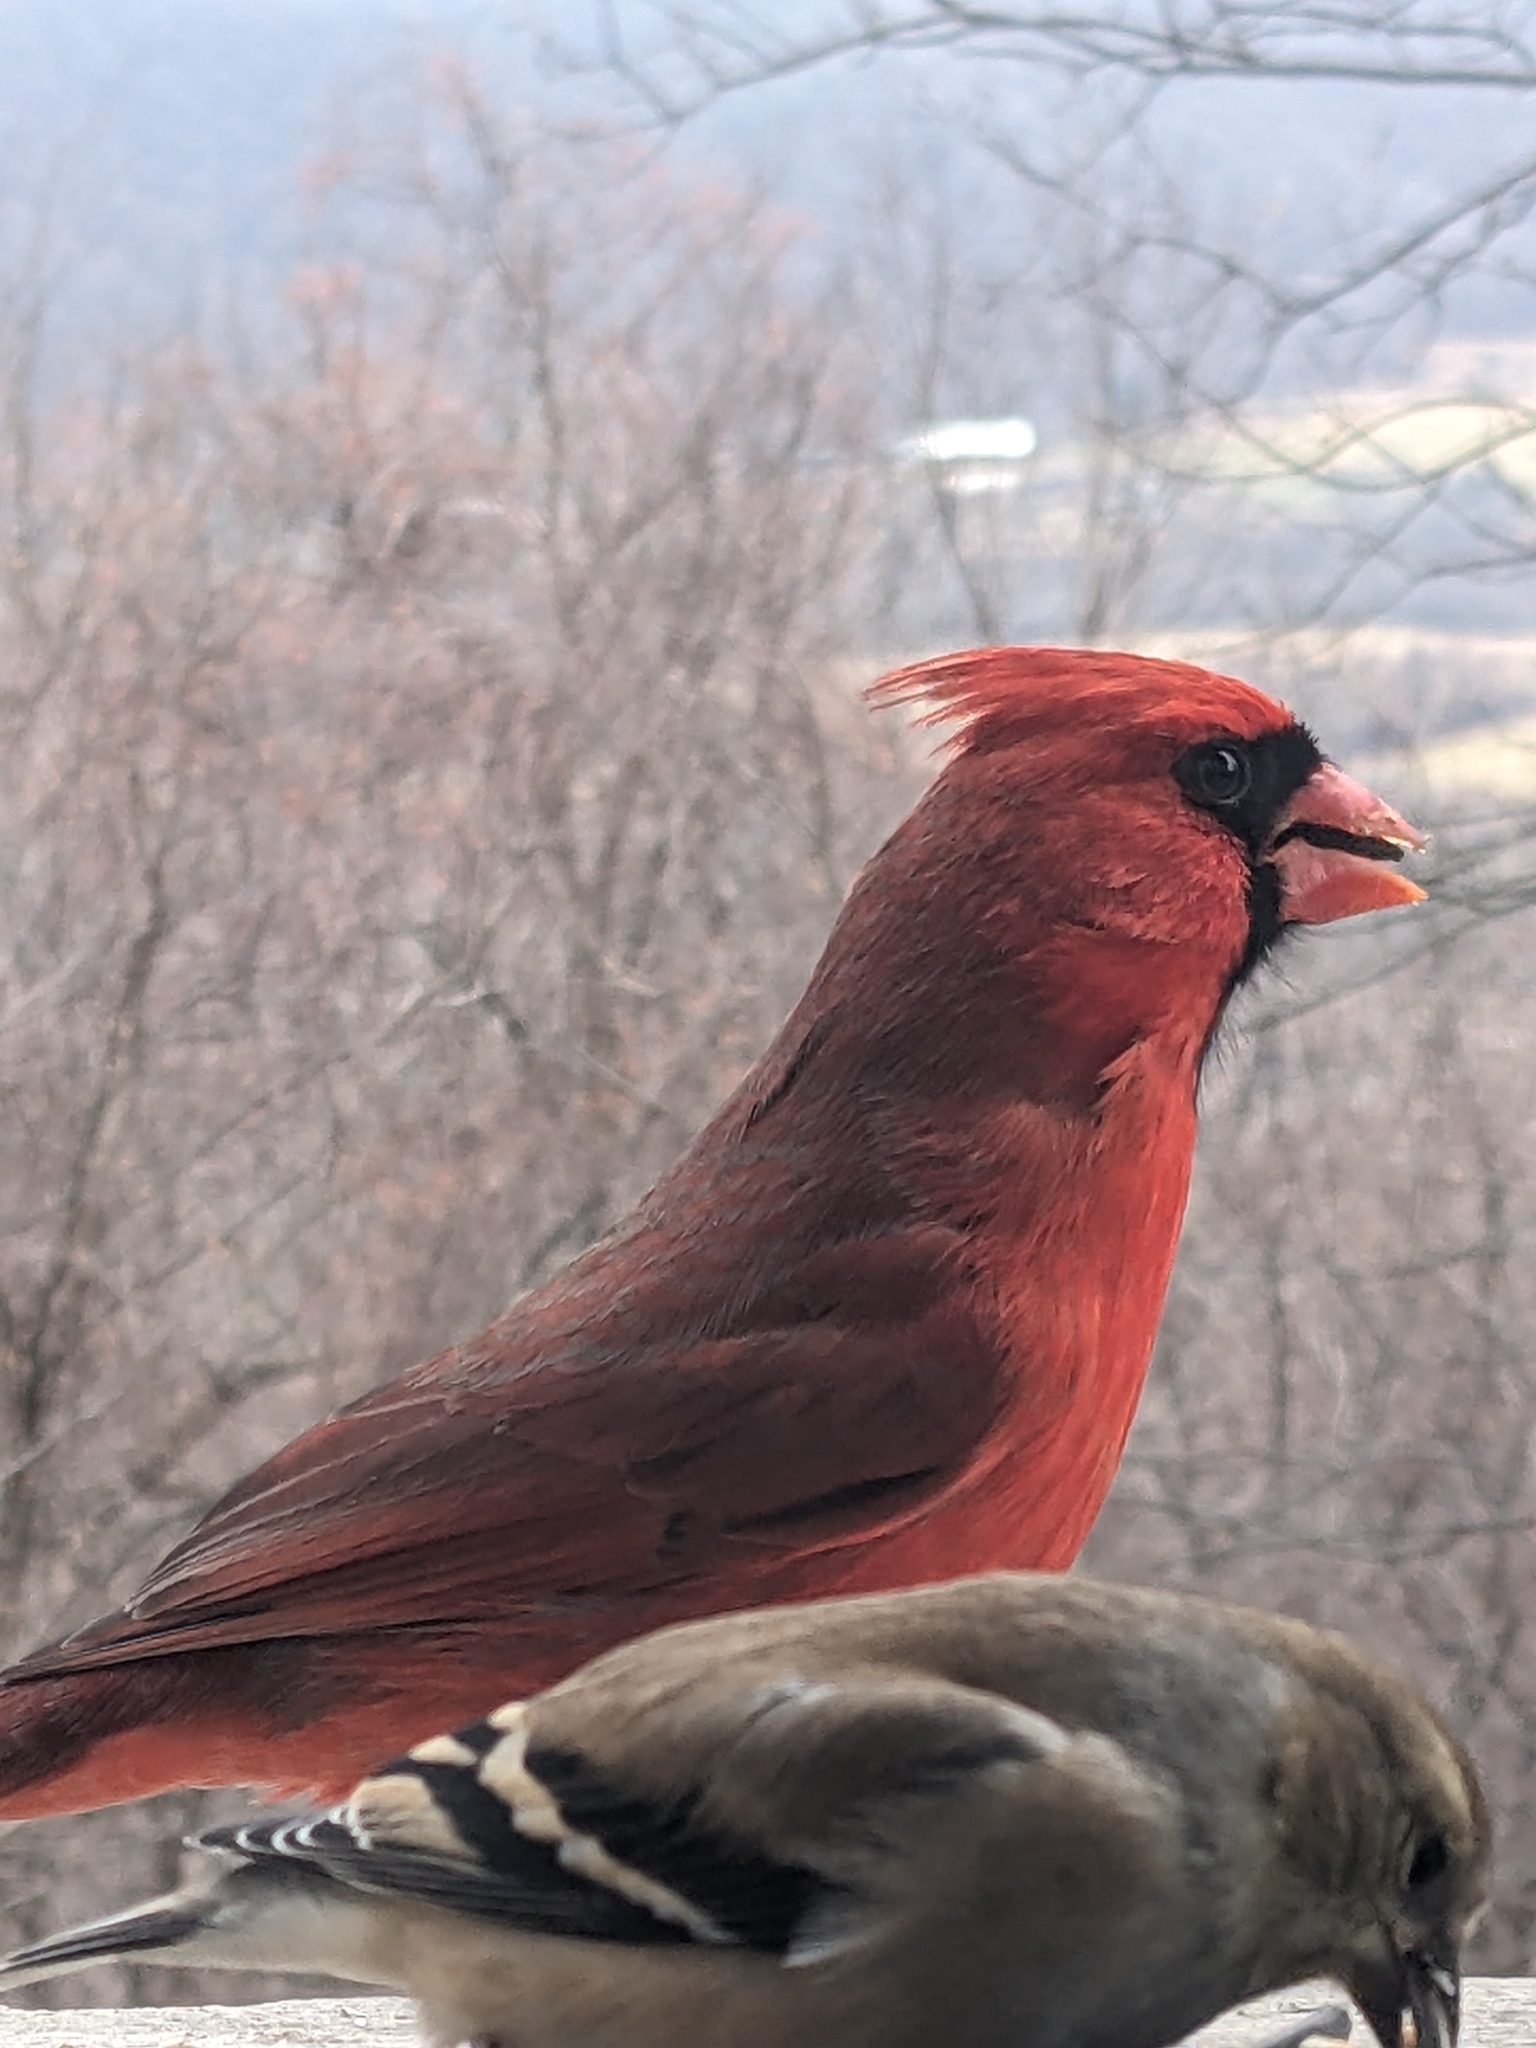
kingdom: Animalia
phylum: Chordata
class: Aves
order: Passeriformes
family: Cardinalidae
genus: Cardinalis
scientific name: Cardinalis cardinalis
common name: Northern cardinal
